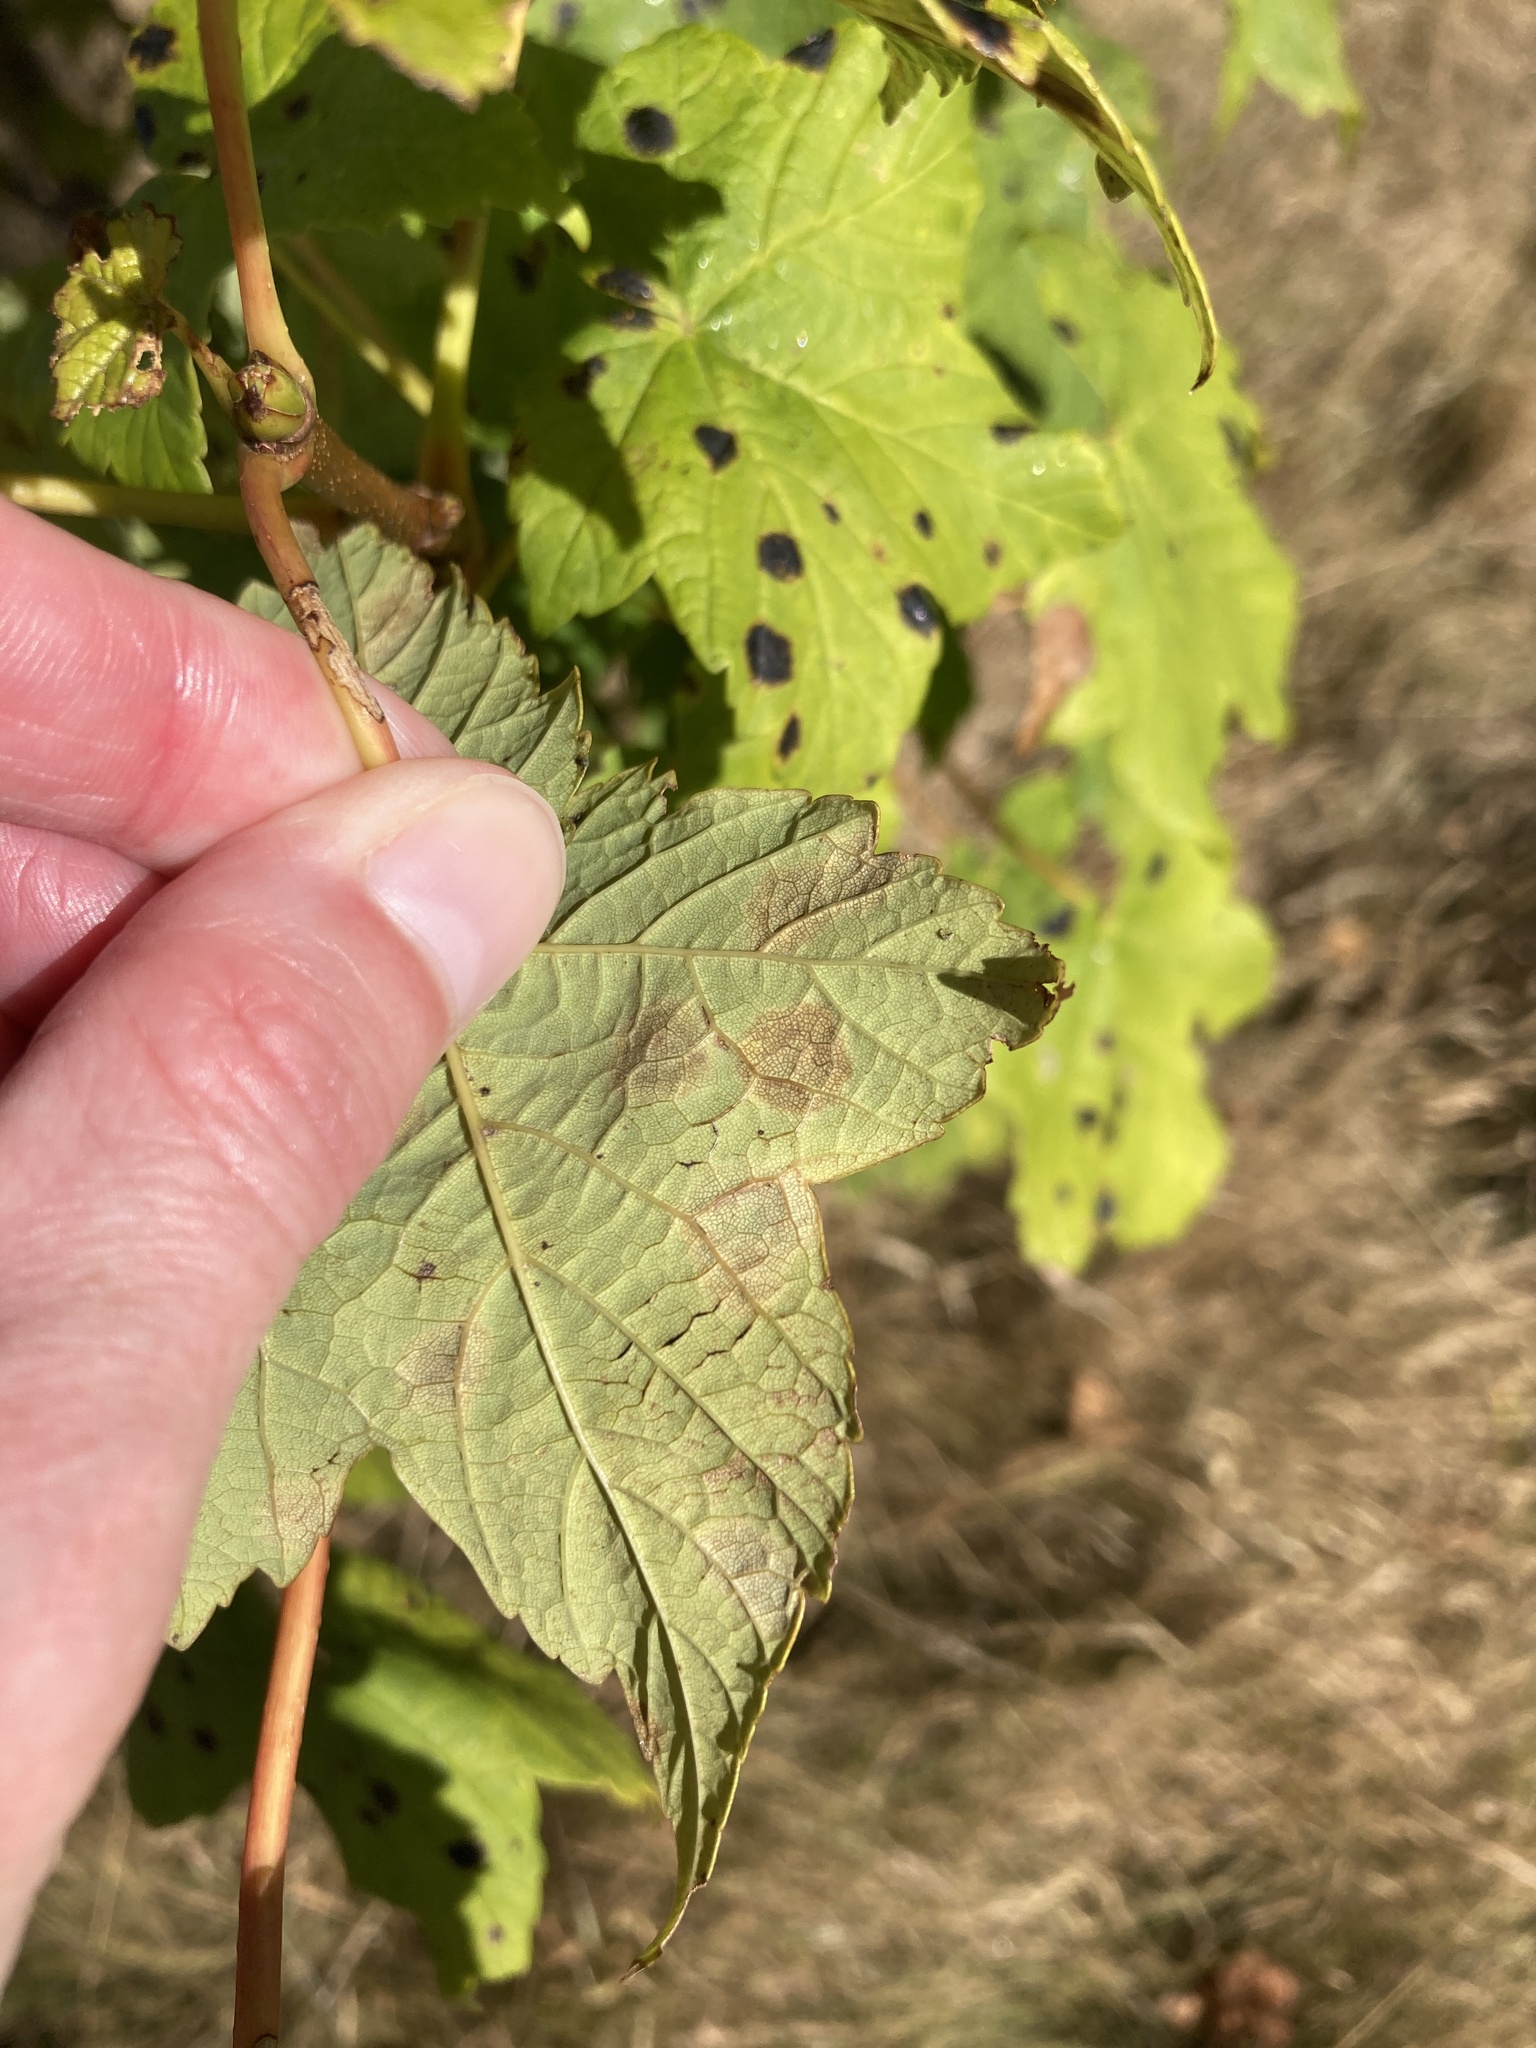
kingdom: Fungi
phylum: Ascomycota
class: Leotiomycetes
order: Rhytismatales
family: Rhytismataceae
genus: Rhytisma
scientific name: Rhytisma acerinum
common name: European tar spot
